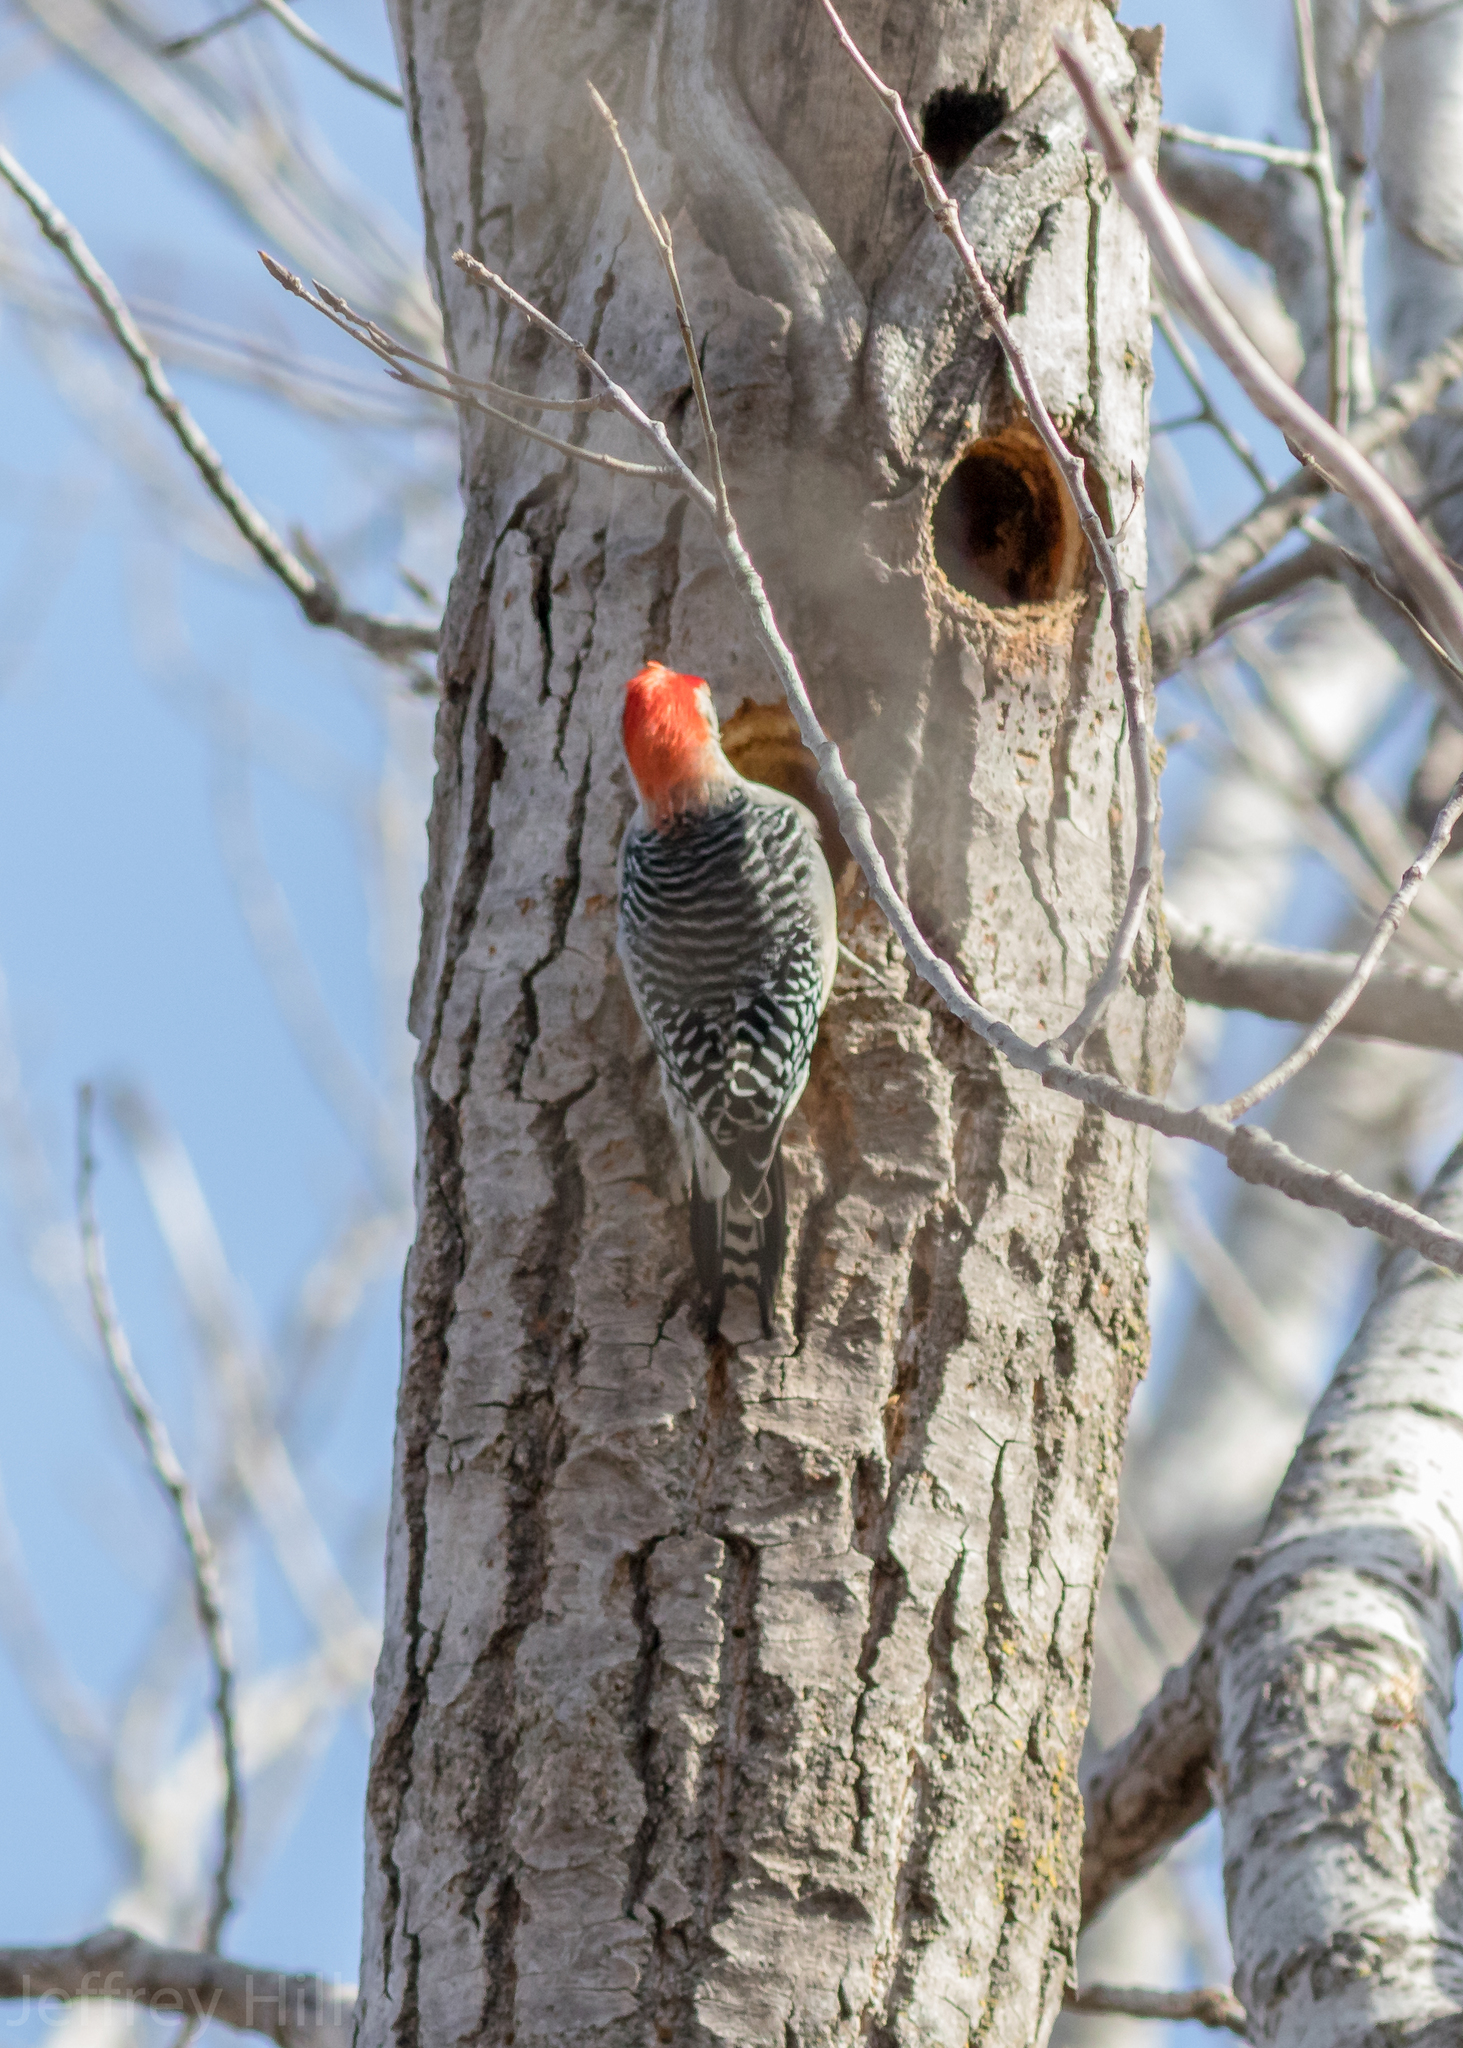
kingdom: Animalia
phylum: Chordata
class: Aves
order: Piciformes
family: Picidae
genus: Melanerpes
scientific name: Melanerpes carolinus
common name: Red-bellied woodpecker
